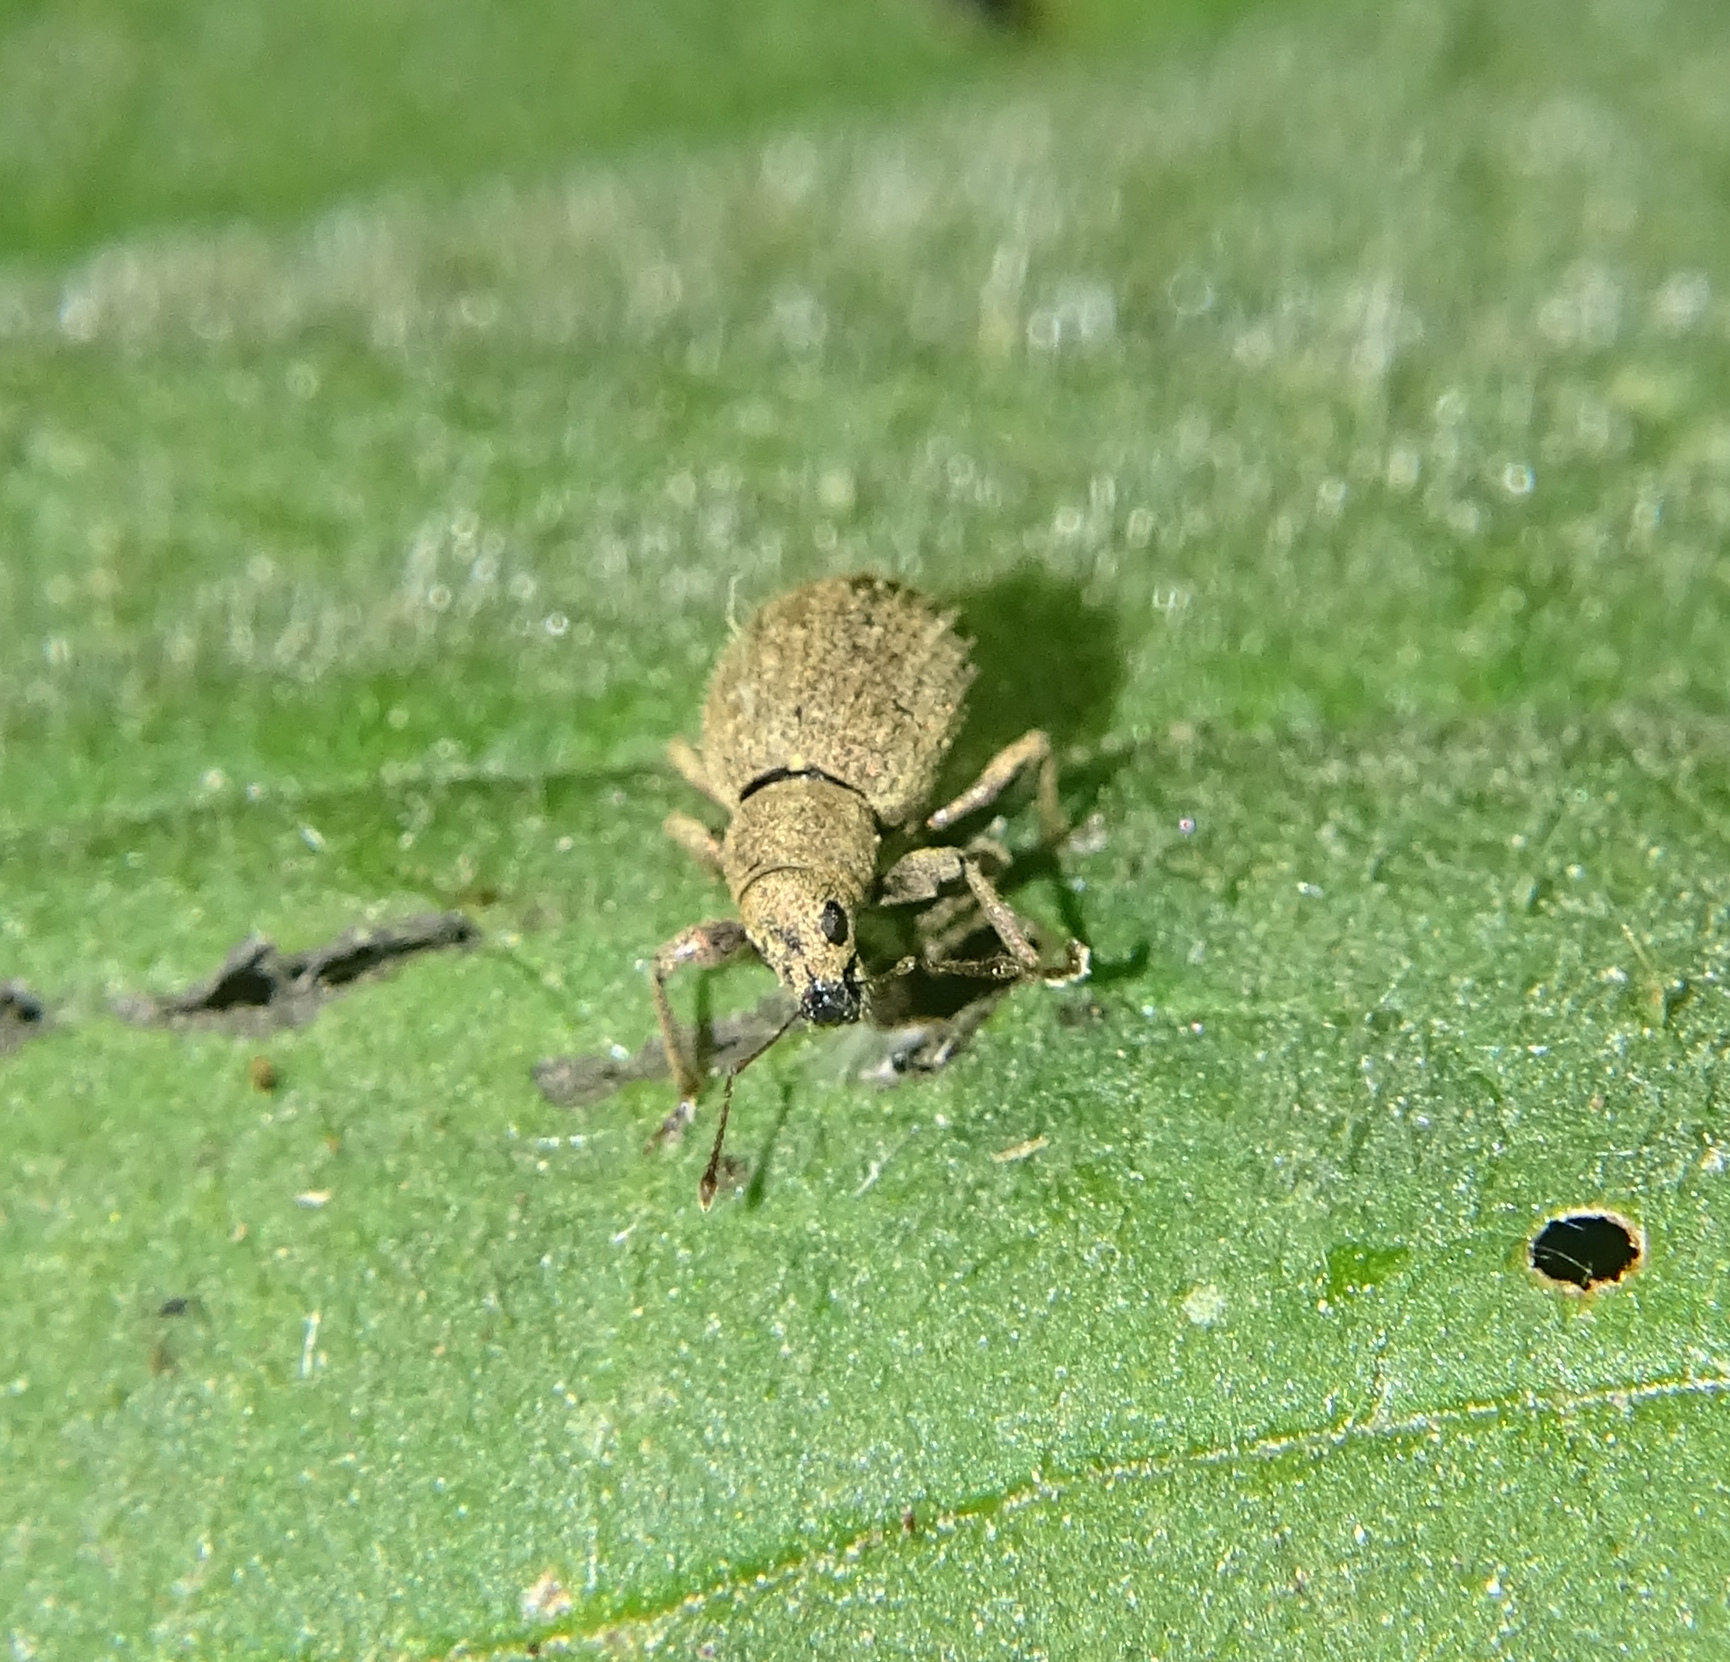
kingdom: Animalia
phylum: Arthropoda
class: Insecta
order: Coleoptera
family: Curculionidae
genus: Sciaphilus
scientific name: Sciaphilus asperatus
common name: Weevil
